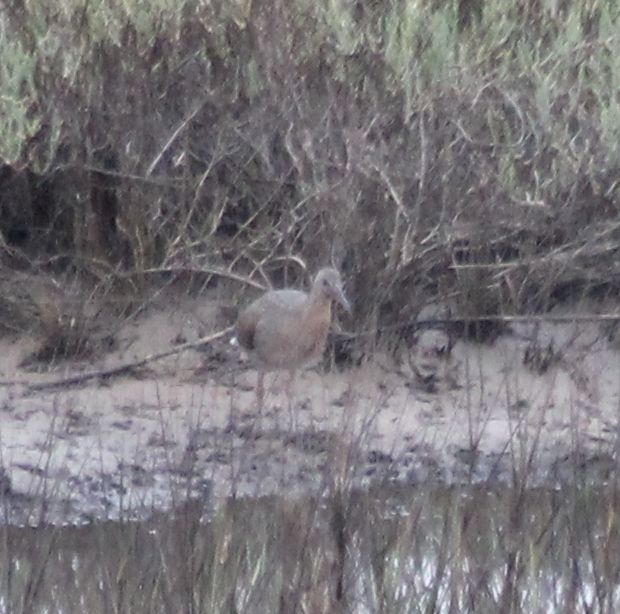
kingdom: Animalia
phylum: Chordata
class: Aves
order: Gruiformes
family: Rallidae
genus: Rallus
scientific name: Rallus obsoletus
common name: Ridgway's rail
